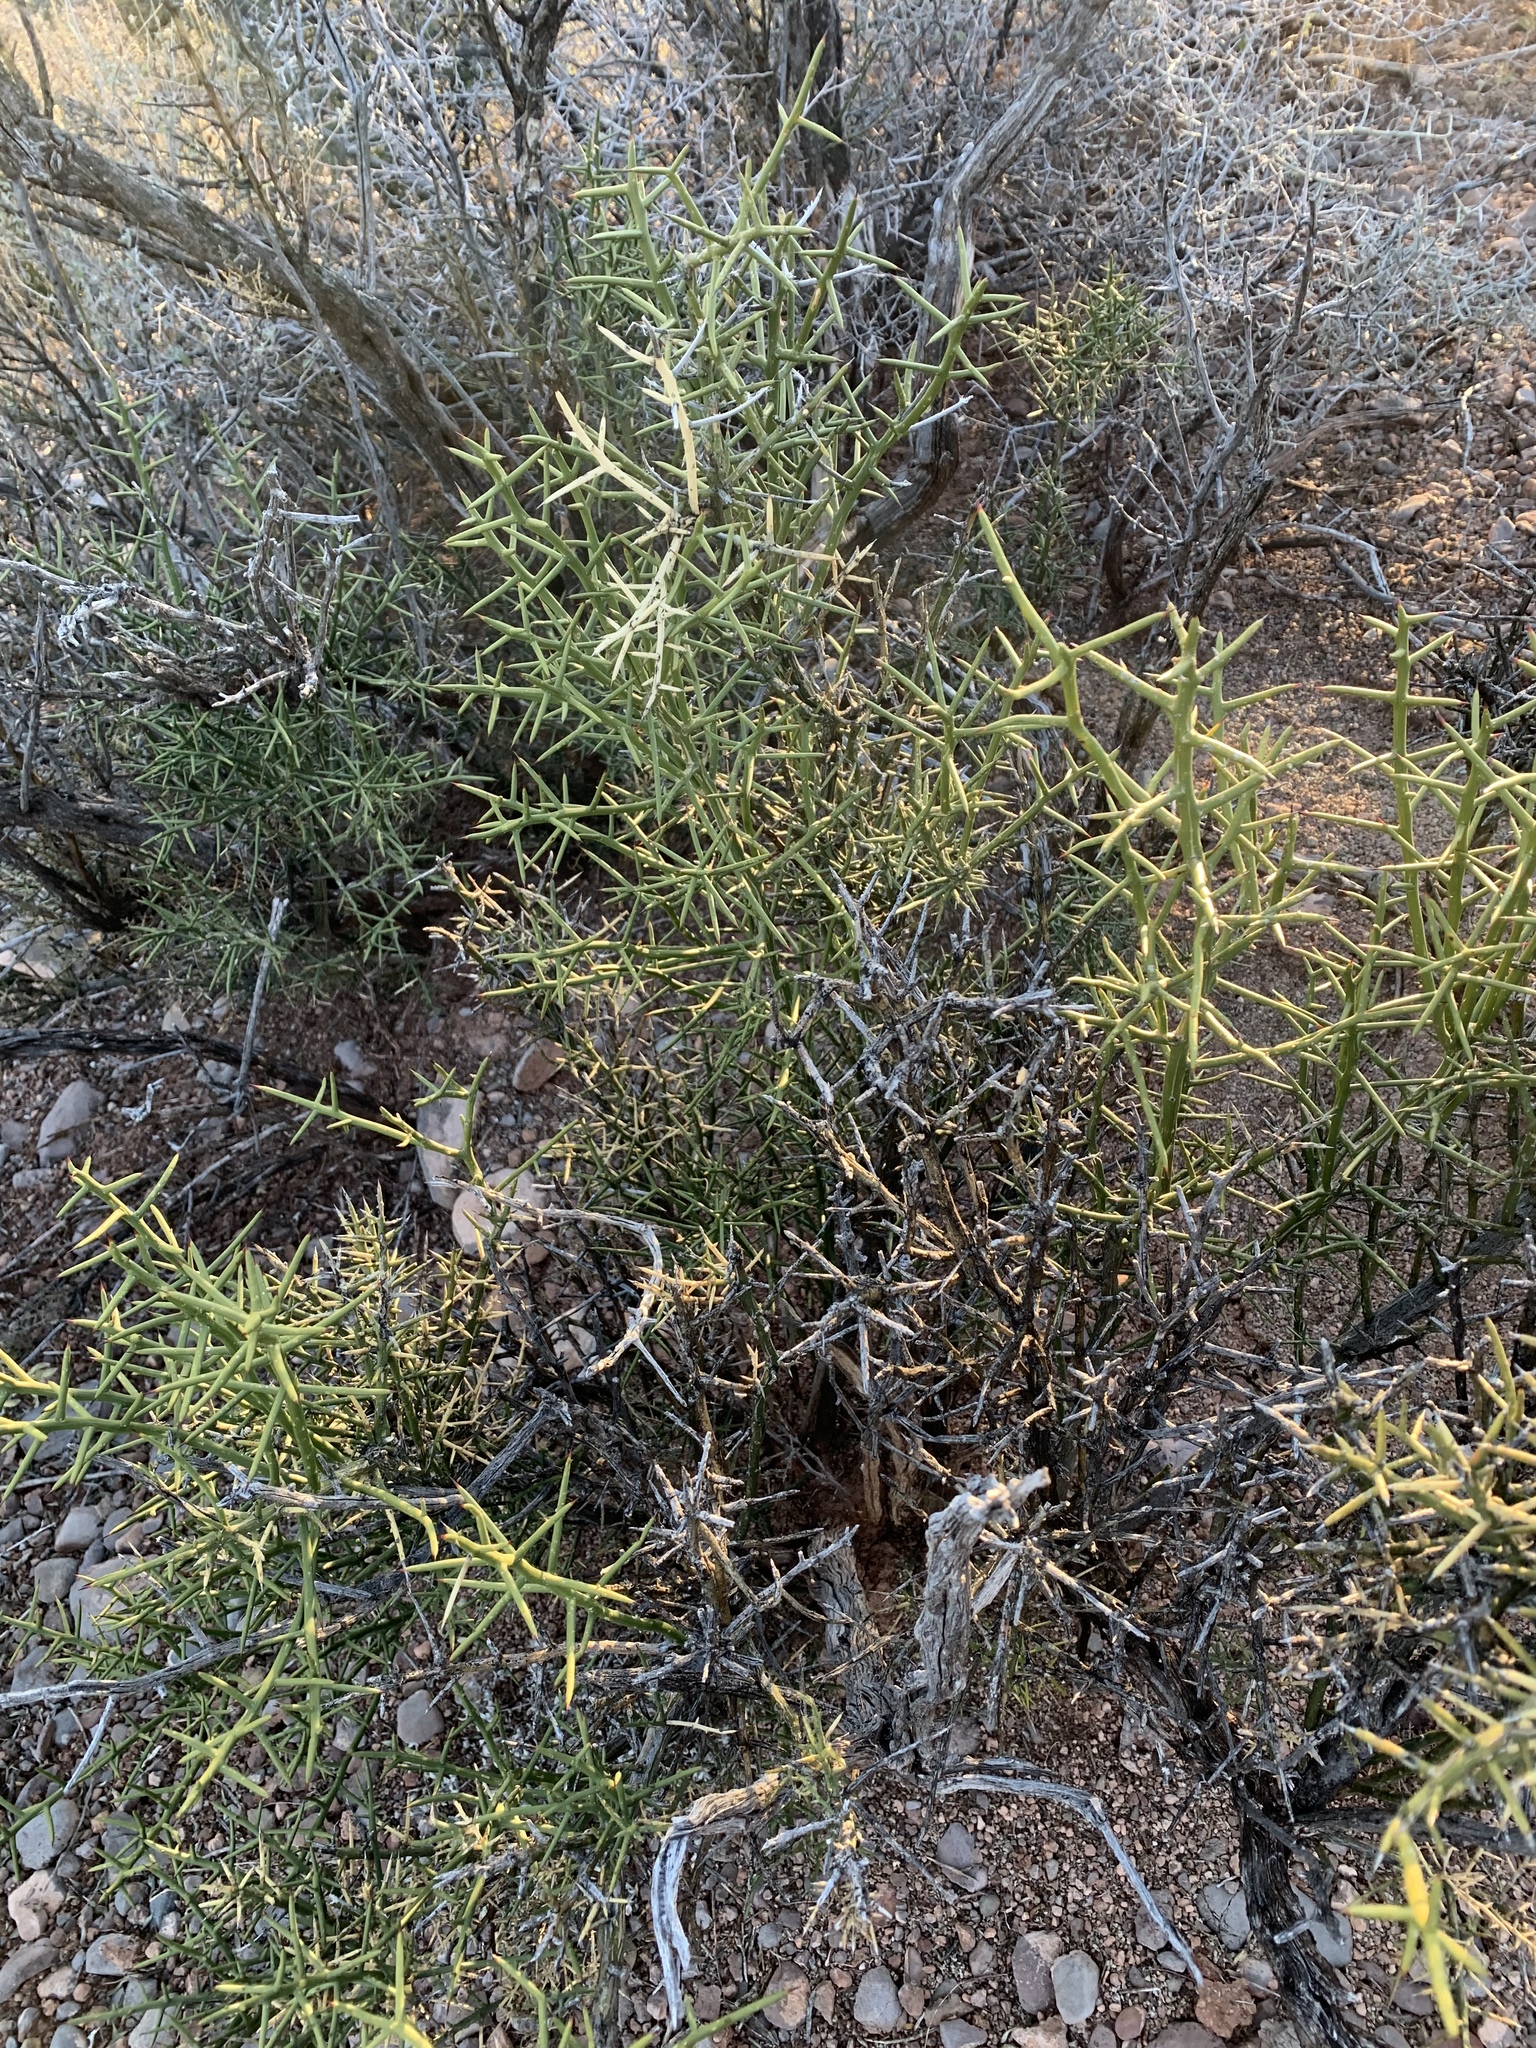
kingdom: Plantae
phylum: Tracheophyta
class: Magnoliopsida
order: Brassicales
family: Koeberliniaceae
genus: Koeberlinia
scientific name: Koeberlinia spinosa
